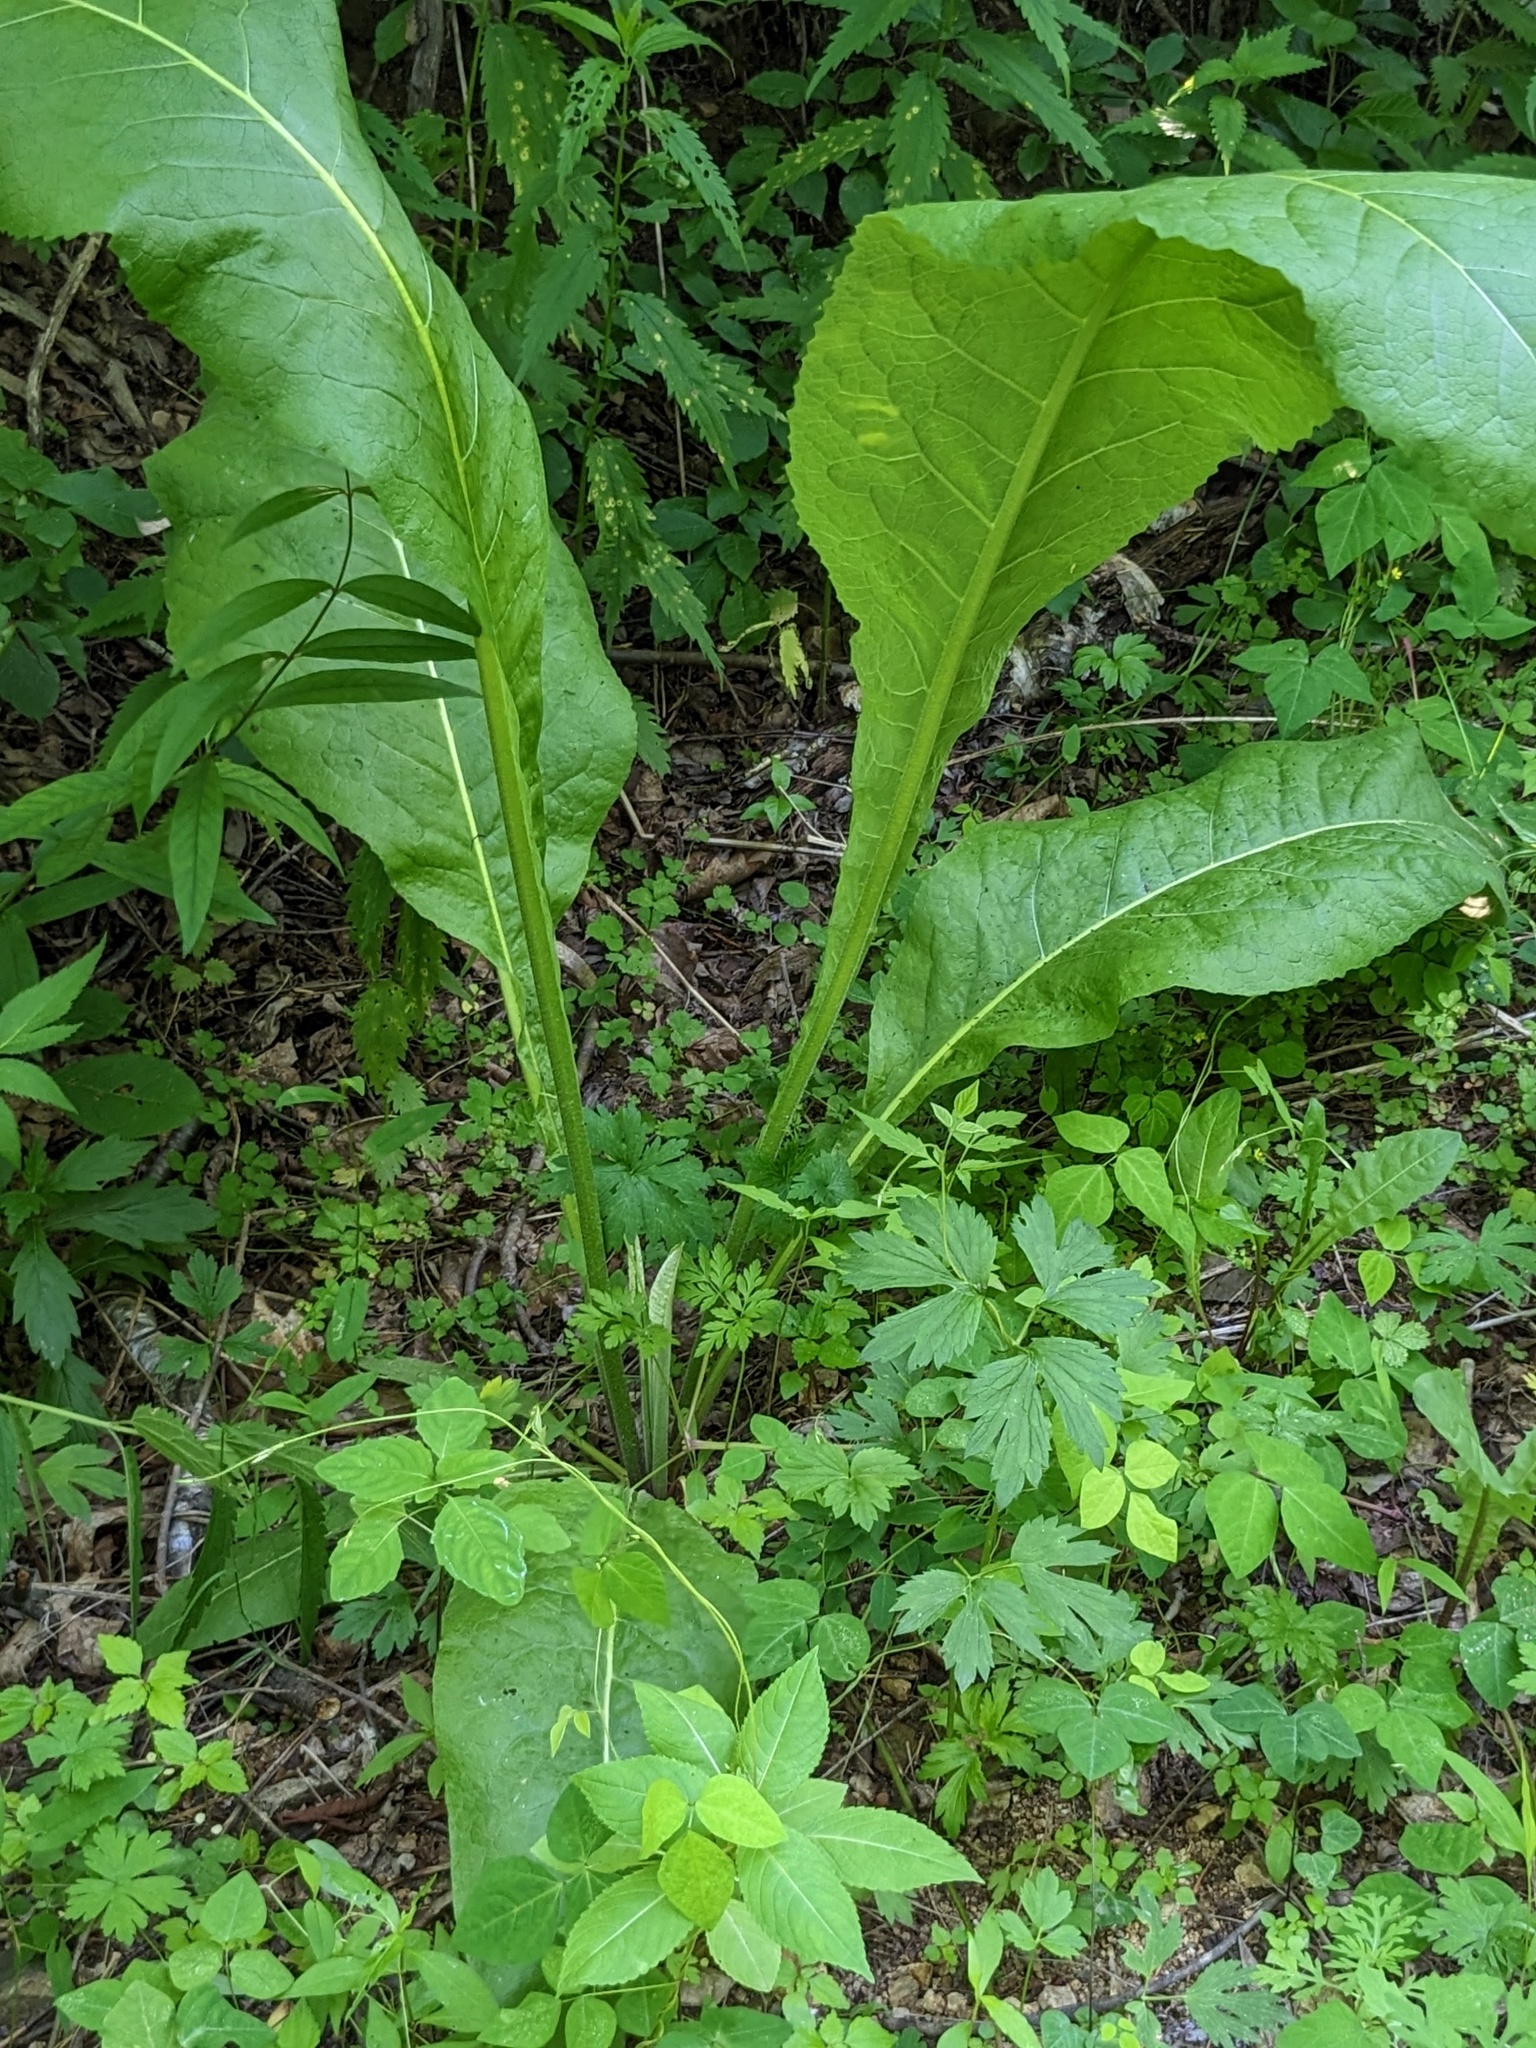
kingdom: Plantae
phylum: Tracheophyta
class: Magnoliopsida
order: Asterales
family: Asteraceae
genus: Aster
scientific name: Aster tataricus
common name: Tatarian aster
